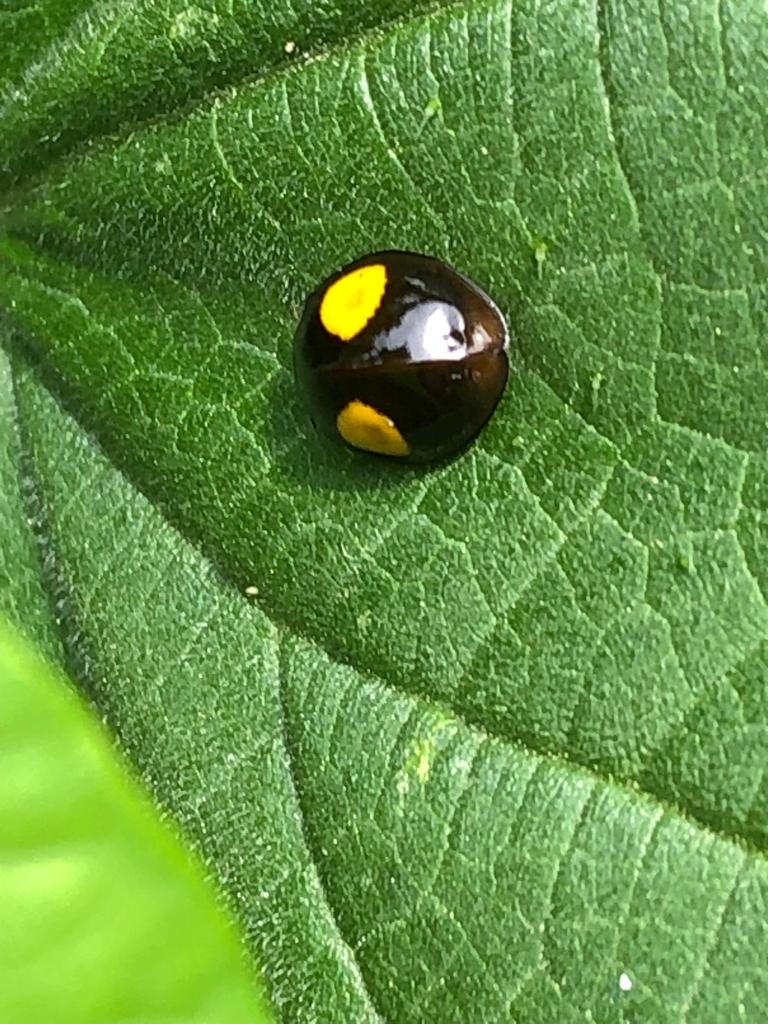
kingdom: Animalia
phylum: Arthropoda
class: Insecta
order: Coleoptera
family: Coccinellidae
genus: Harmonia
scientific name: Harmonia axyridis
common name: Harlequin ladybird
